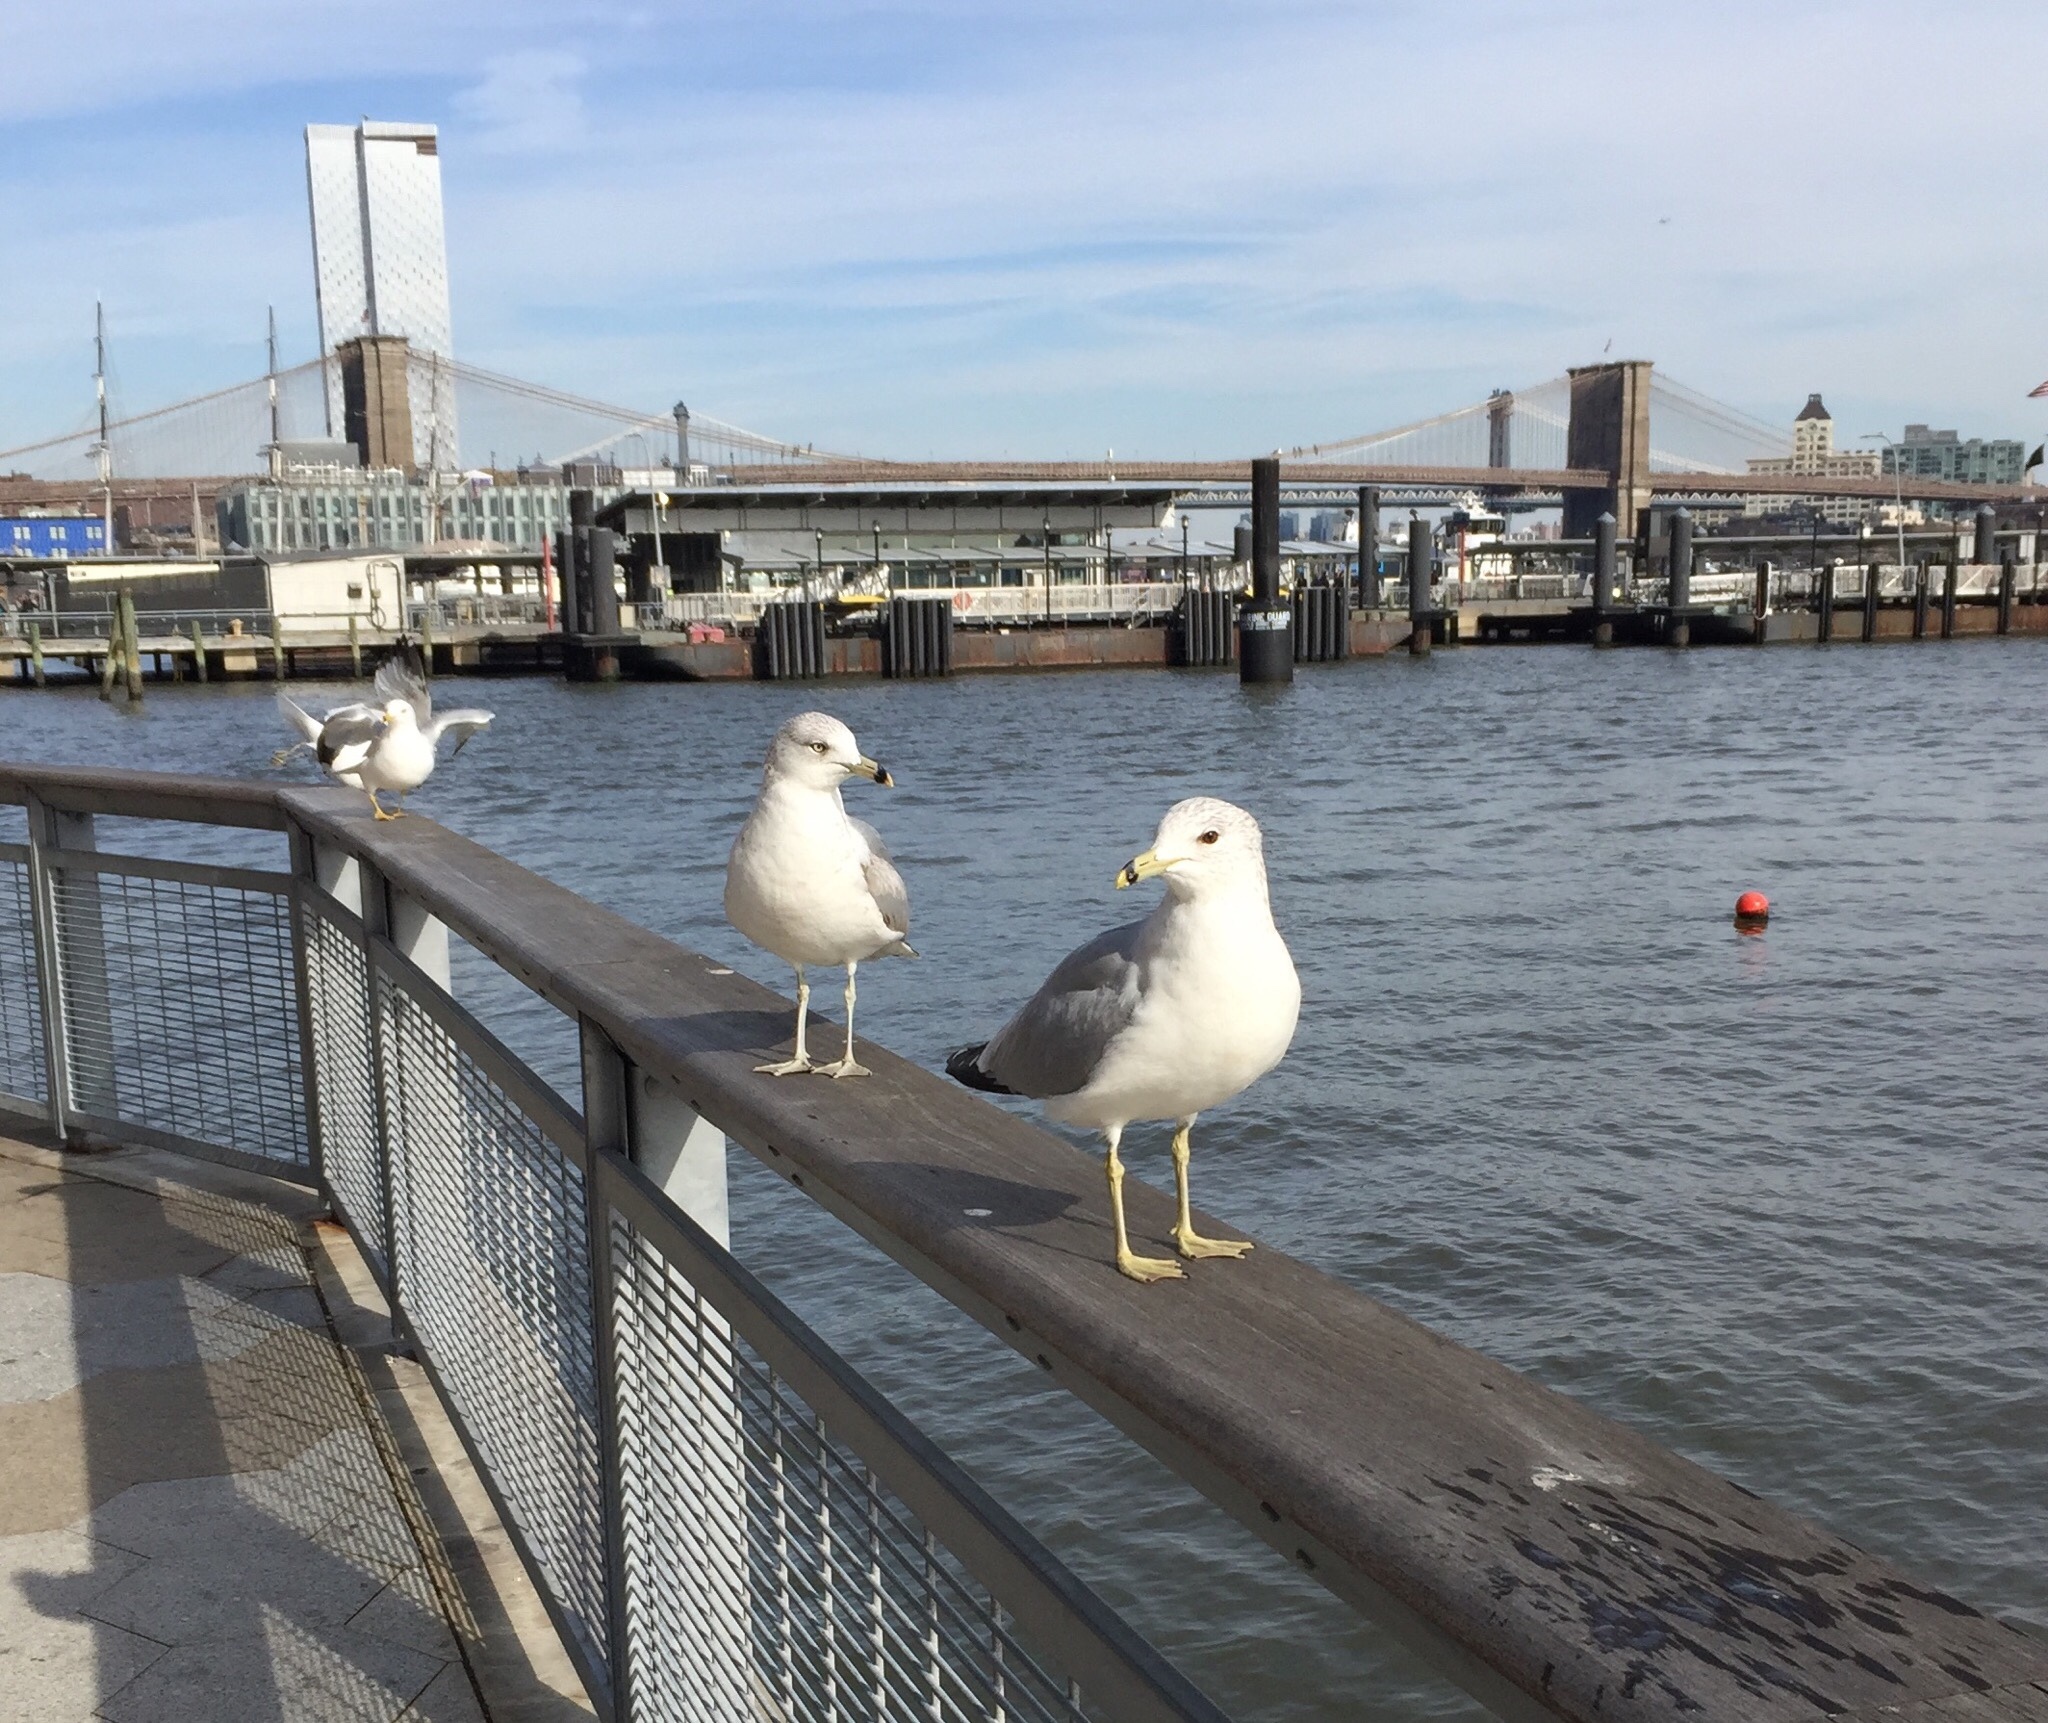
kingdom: Animalia
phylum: Chordata
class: Aves
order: Charadriiformes
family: Laridae
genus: Larus
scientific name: Larus delawarensis
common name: Ring-billed gull
